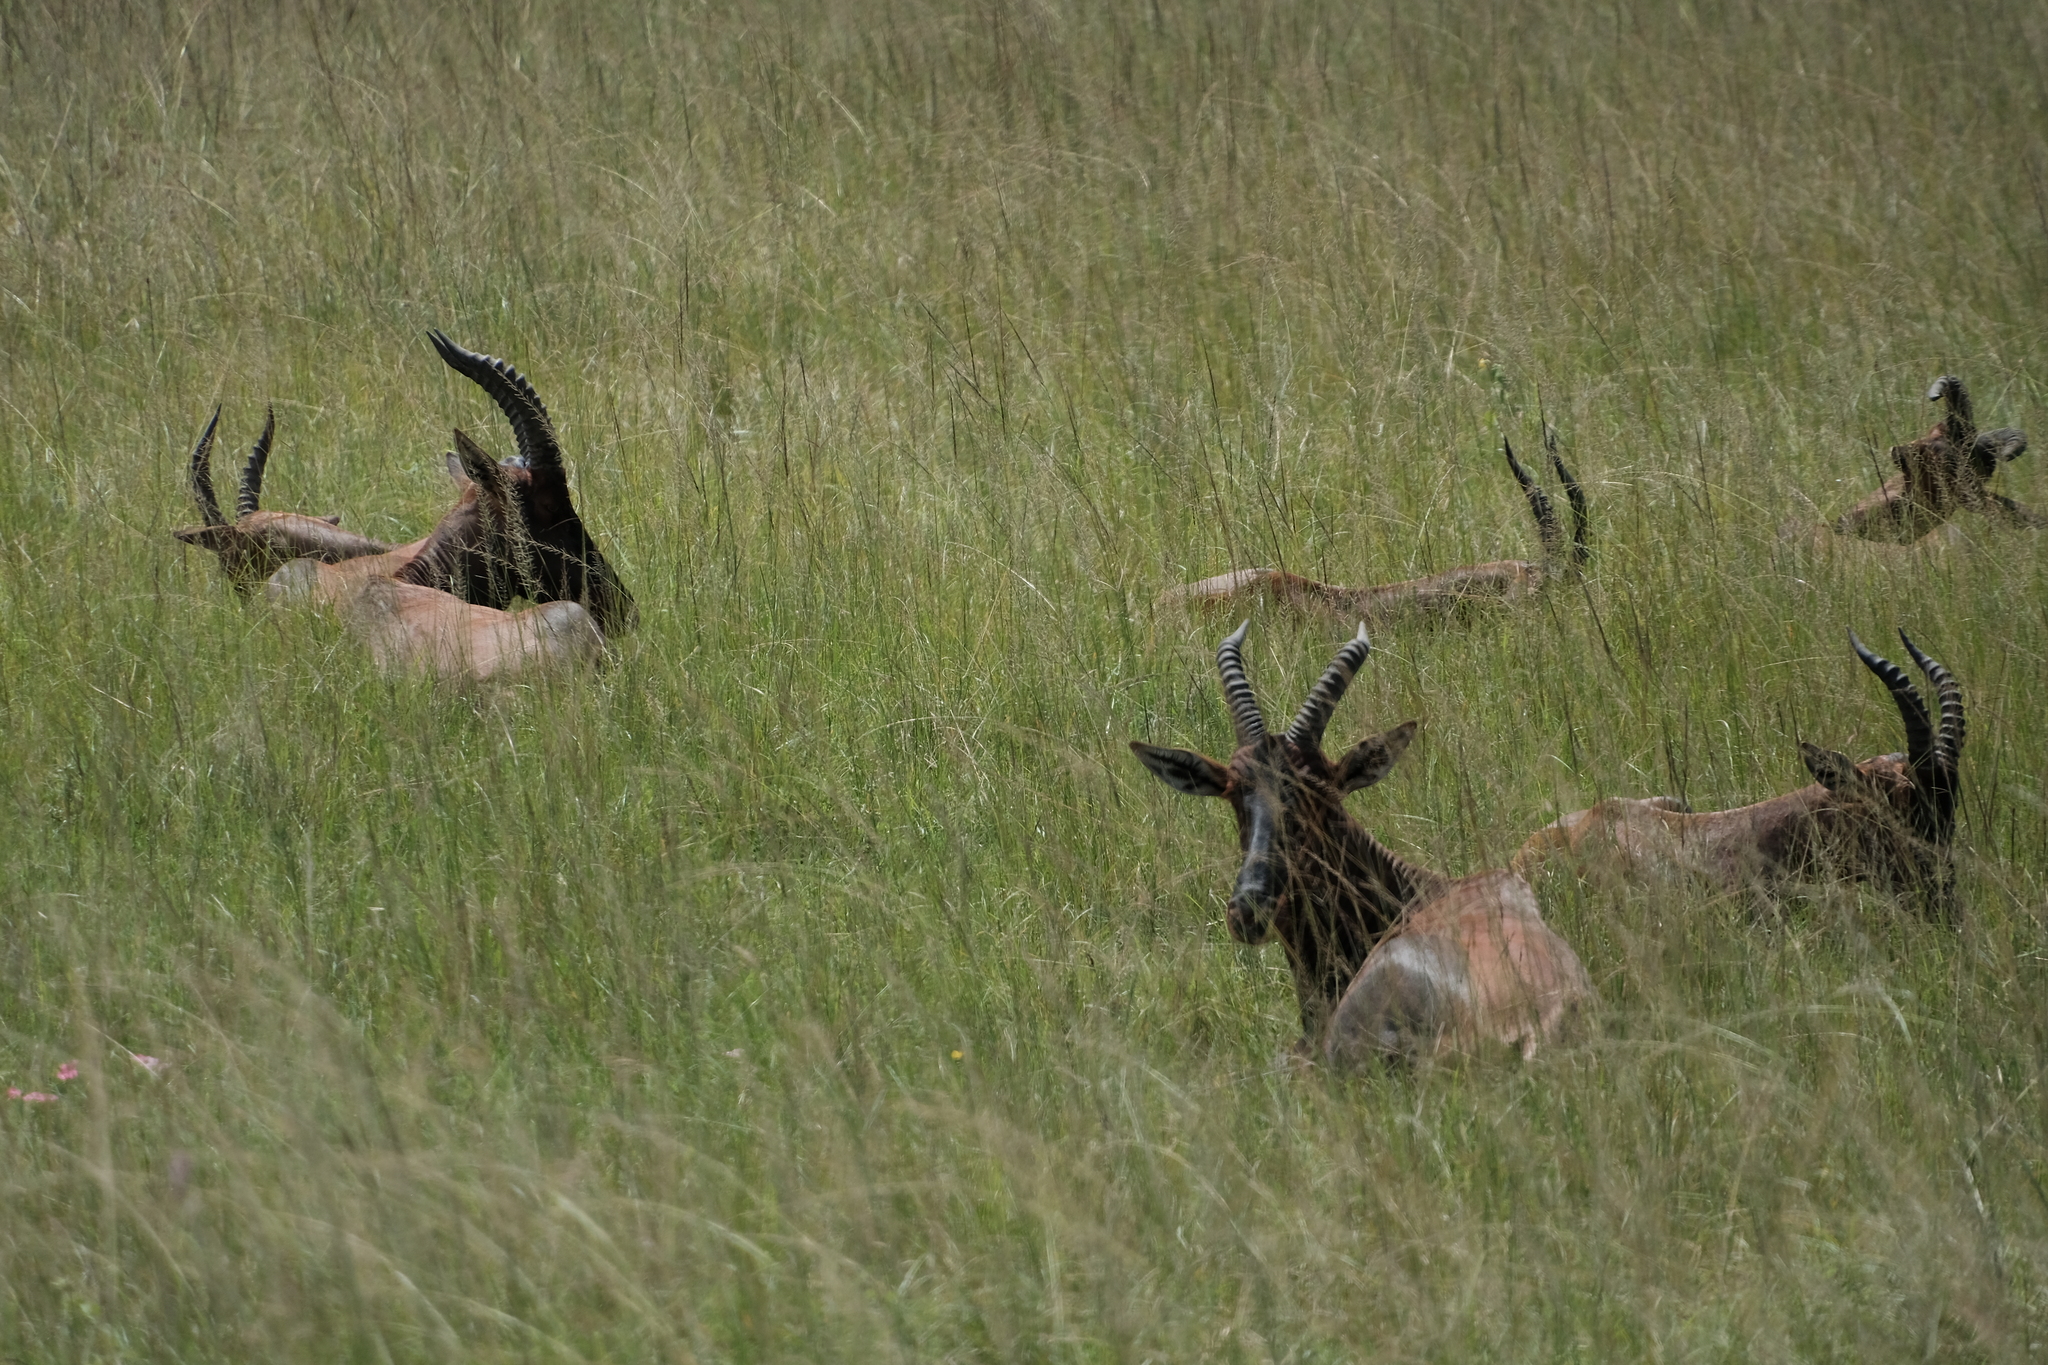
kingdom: Animalia
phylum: Chordata
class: Mammalia
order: Artiodactyla
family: Bovidae
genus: Damaliscus
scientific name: Damaliscus korrigum
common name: Topi
